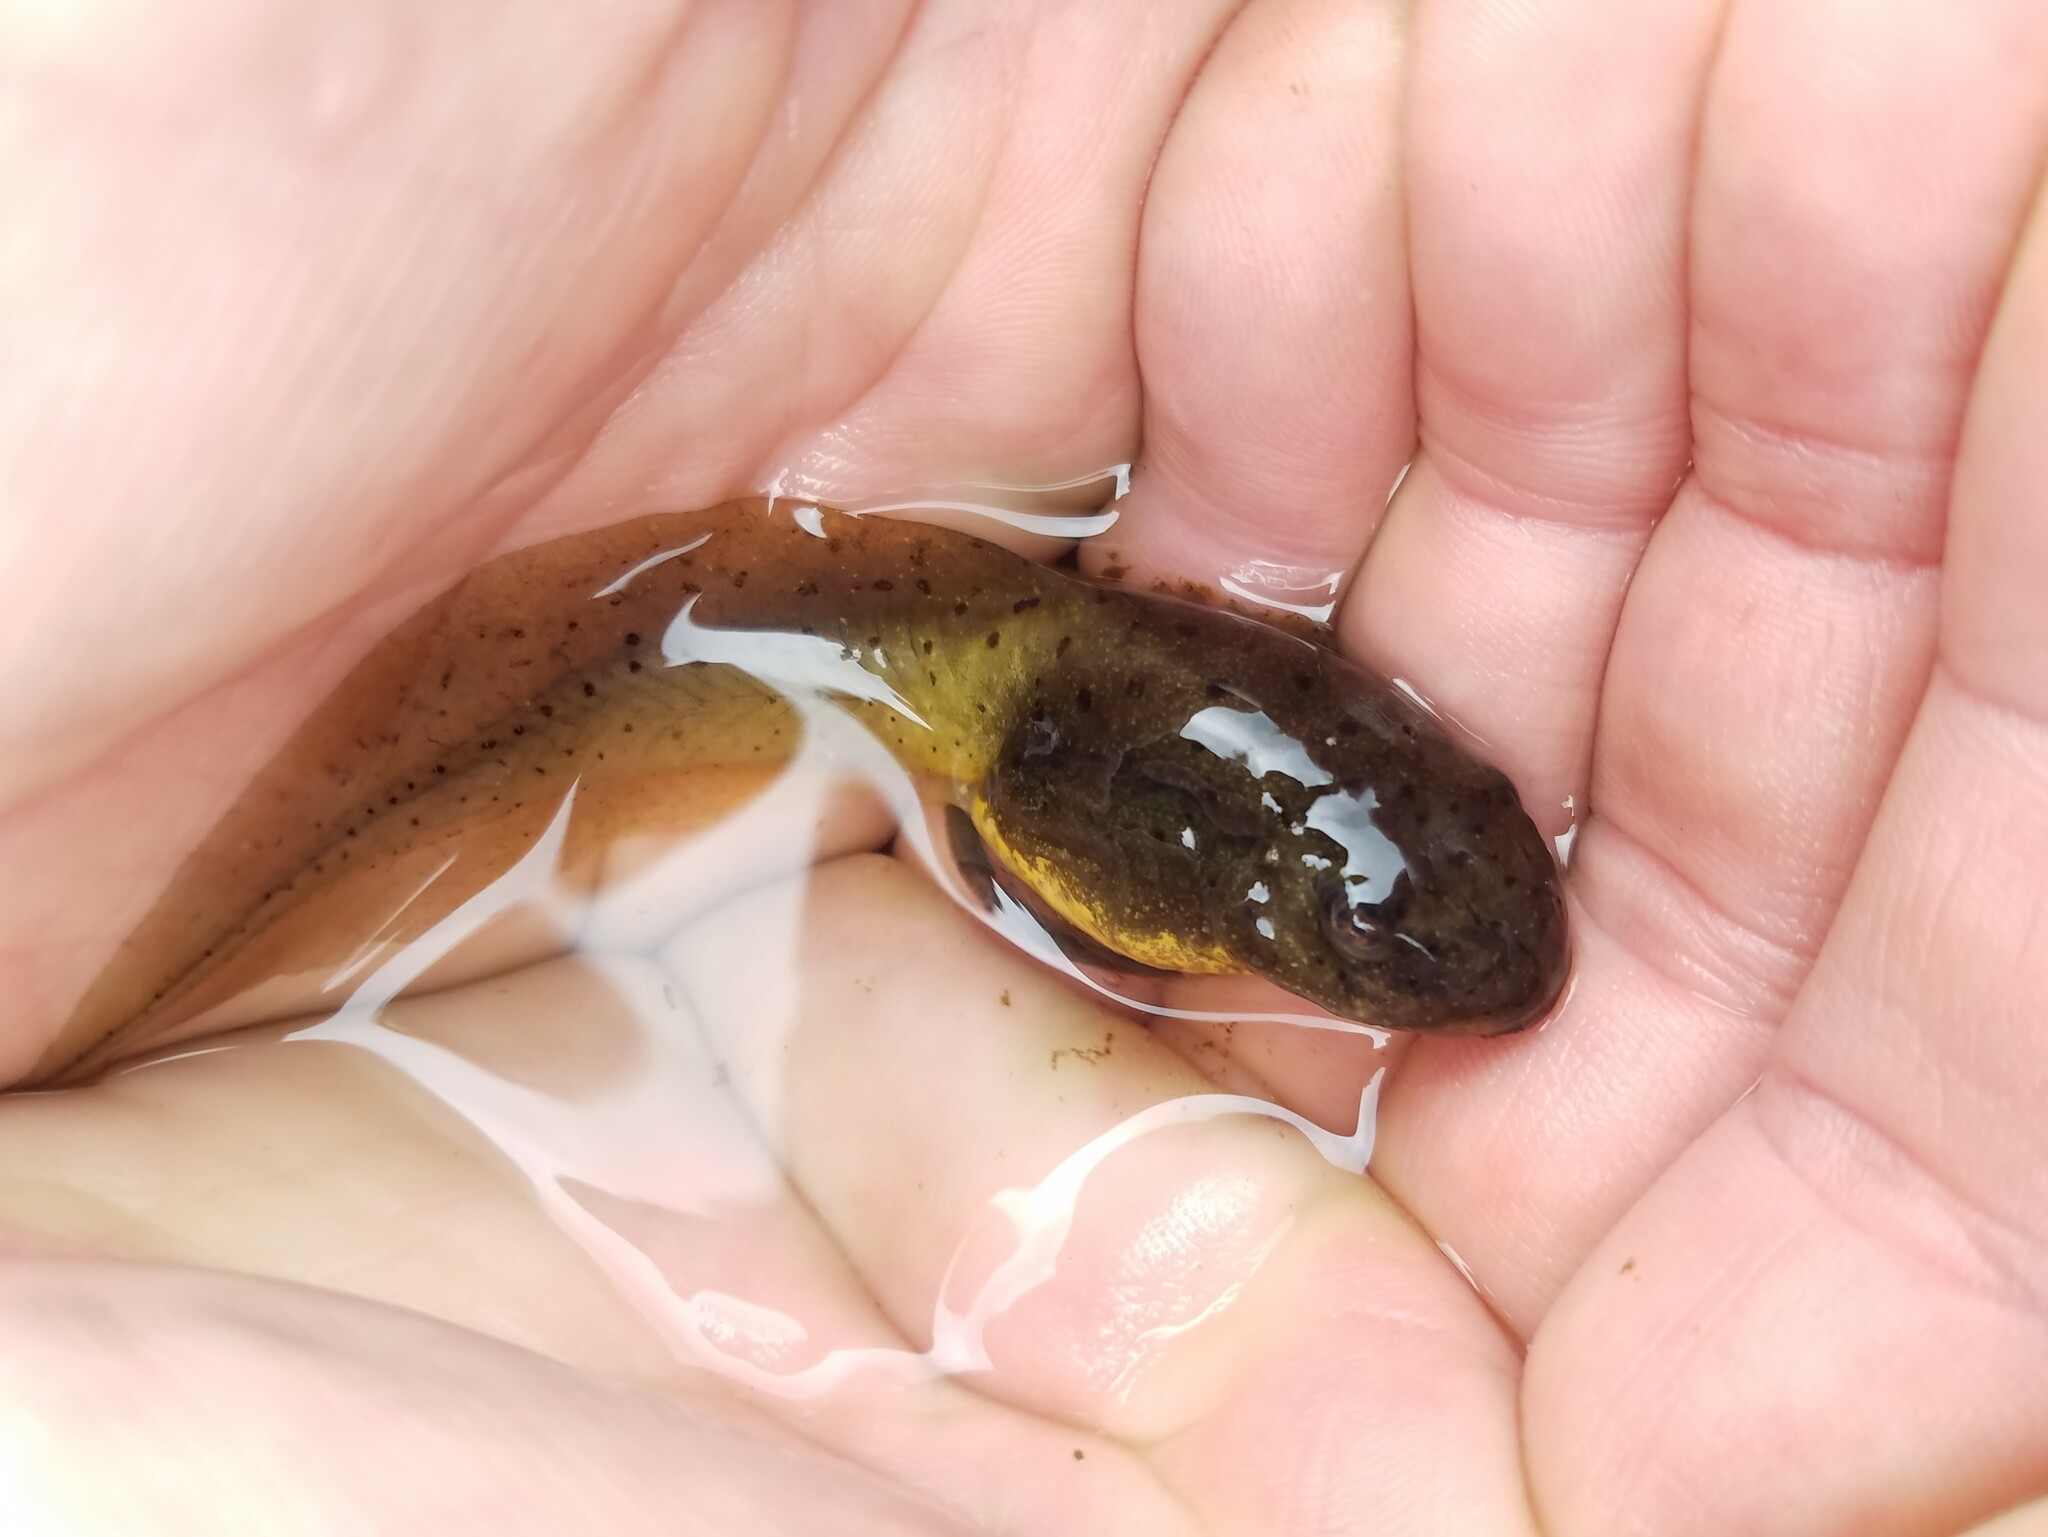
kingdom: Animalia
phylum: Chordata
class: Amphibia
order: Anura
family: Ranidae
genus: Lithobates
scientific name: Lithobates catesbeianus
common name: American bullfrog
